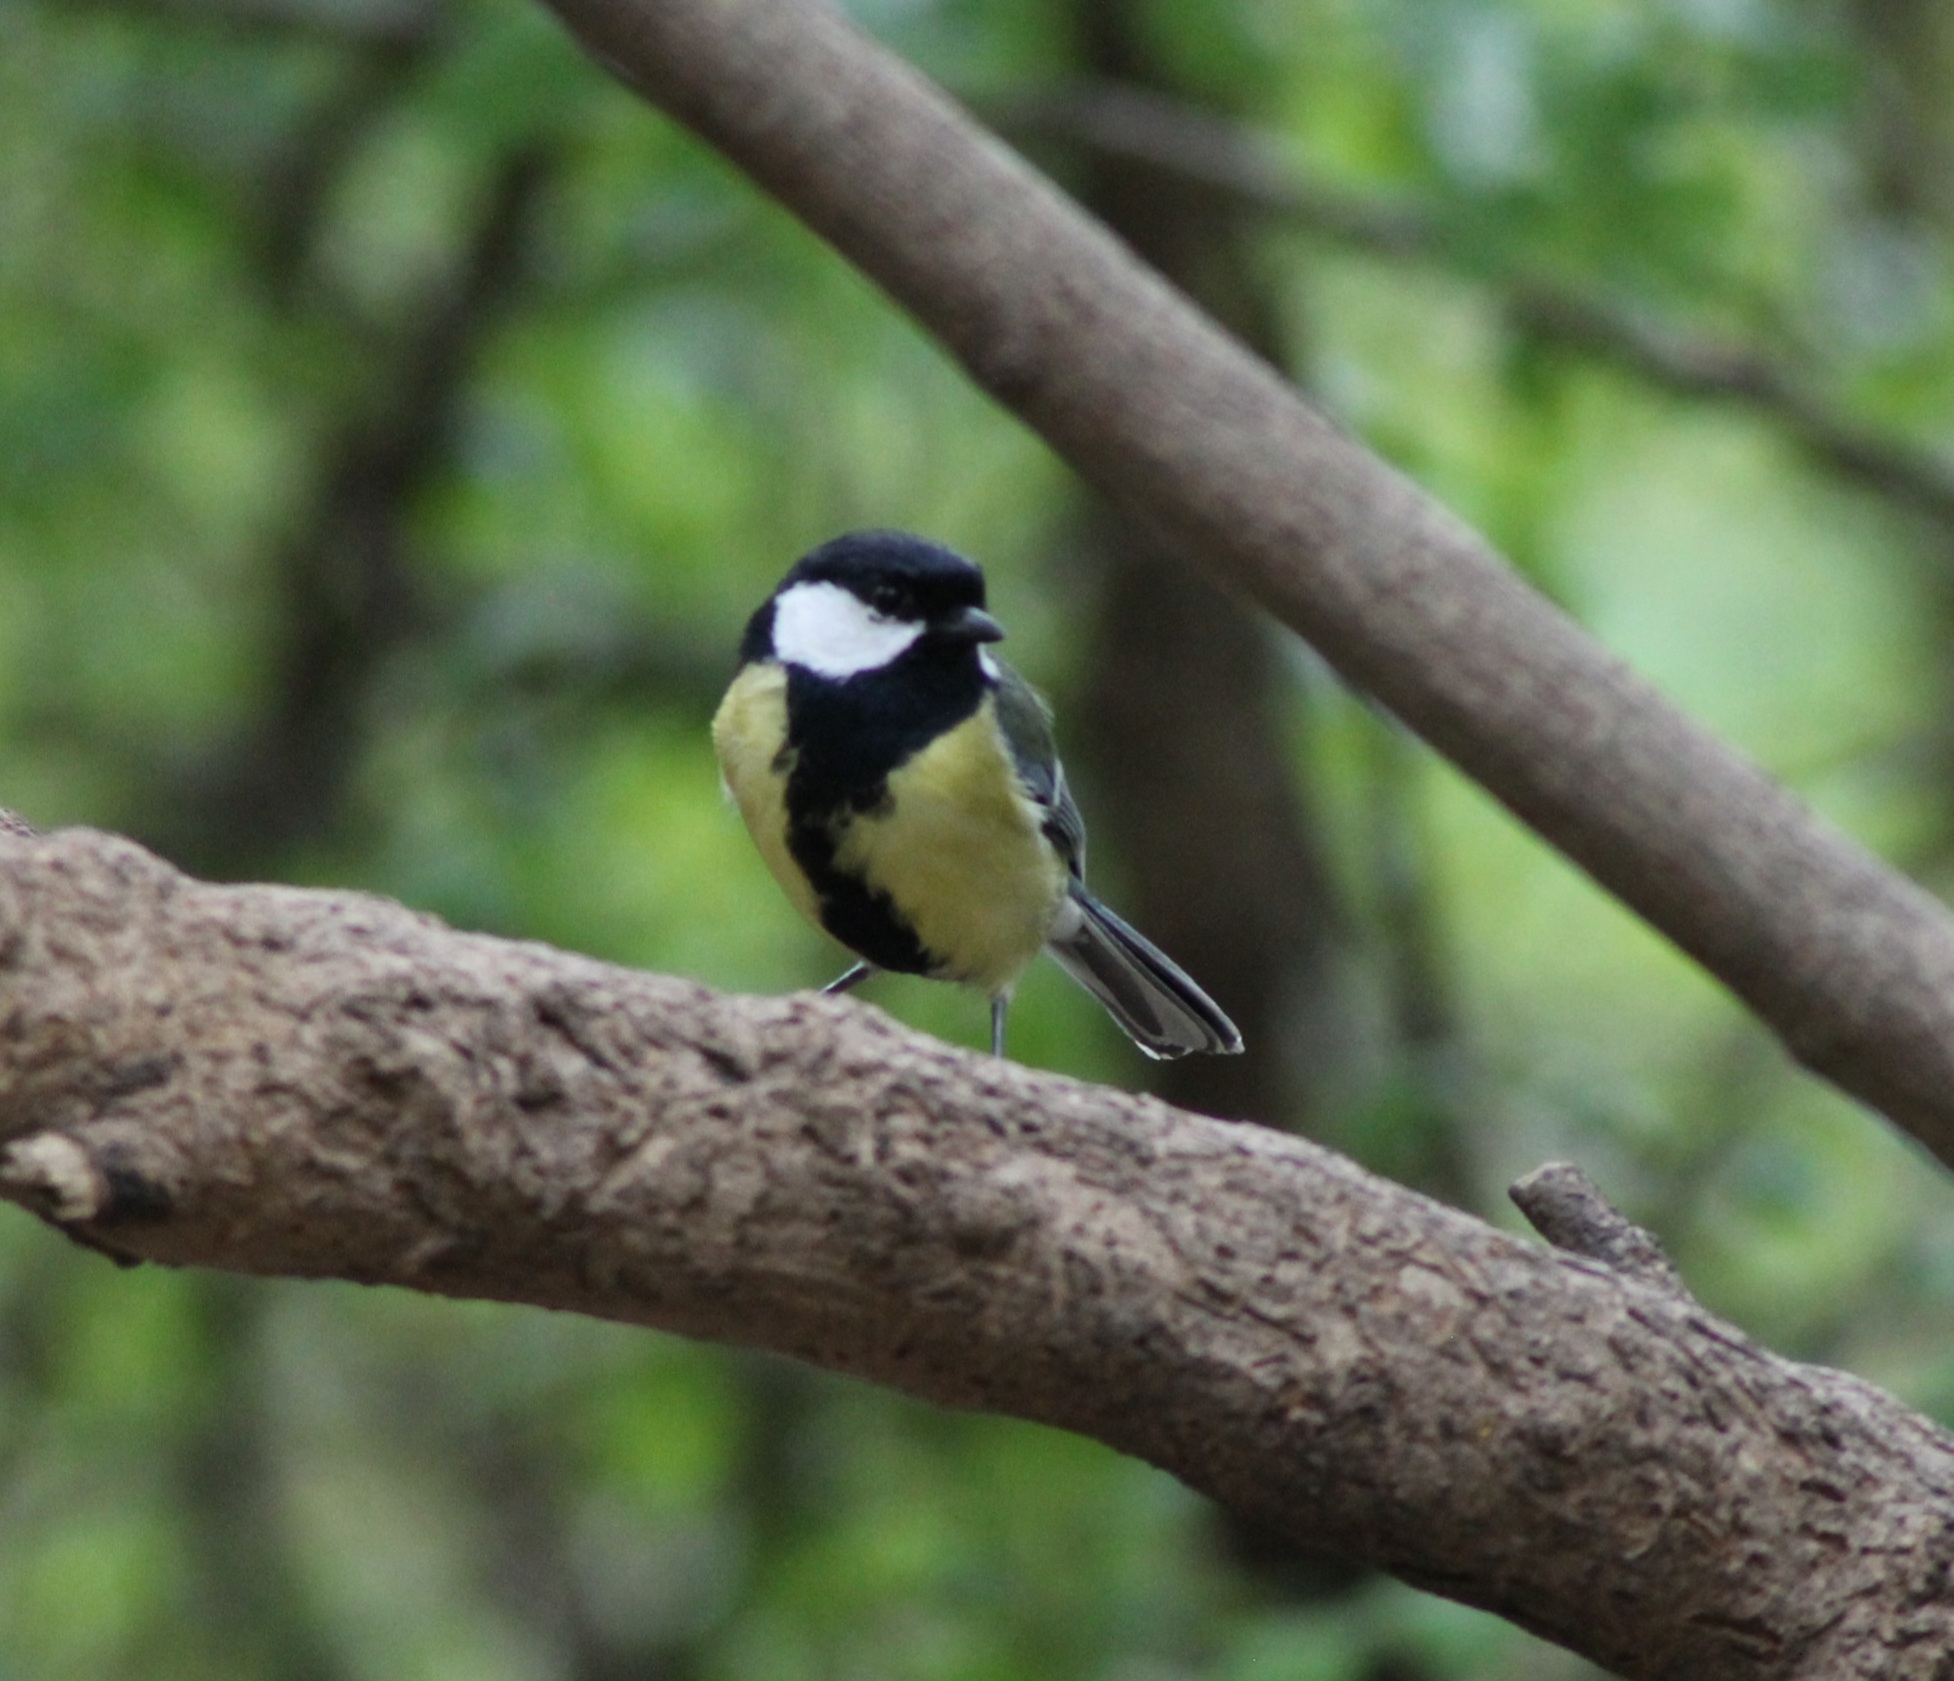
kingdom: Animalia
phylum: Chordata
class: Aves
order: Passeriformes
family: Paridae
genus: Parus
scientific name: Parus major
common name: Great tit
